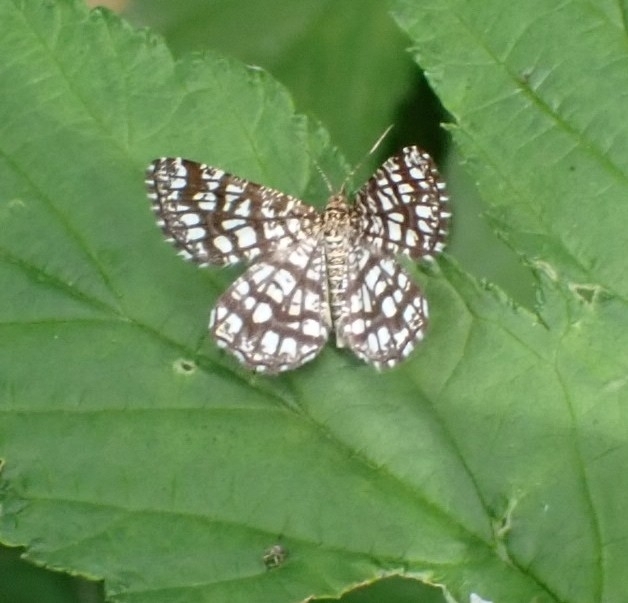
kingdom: Animalia
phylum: Arthropoda
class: Insecta
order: Lepidoptera
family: Geometridae
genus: Chiasmia
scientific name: Chiasmia clathrata
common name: Latticed heath
